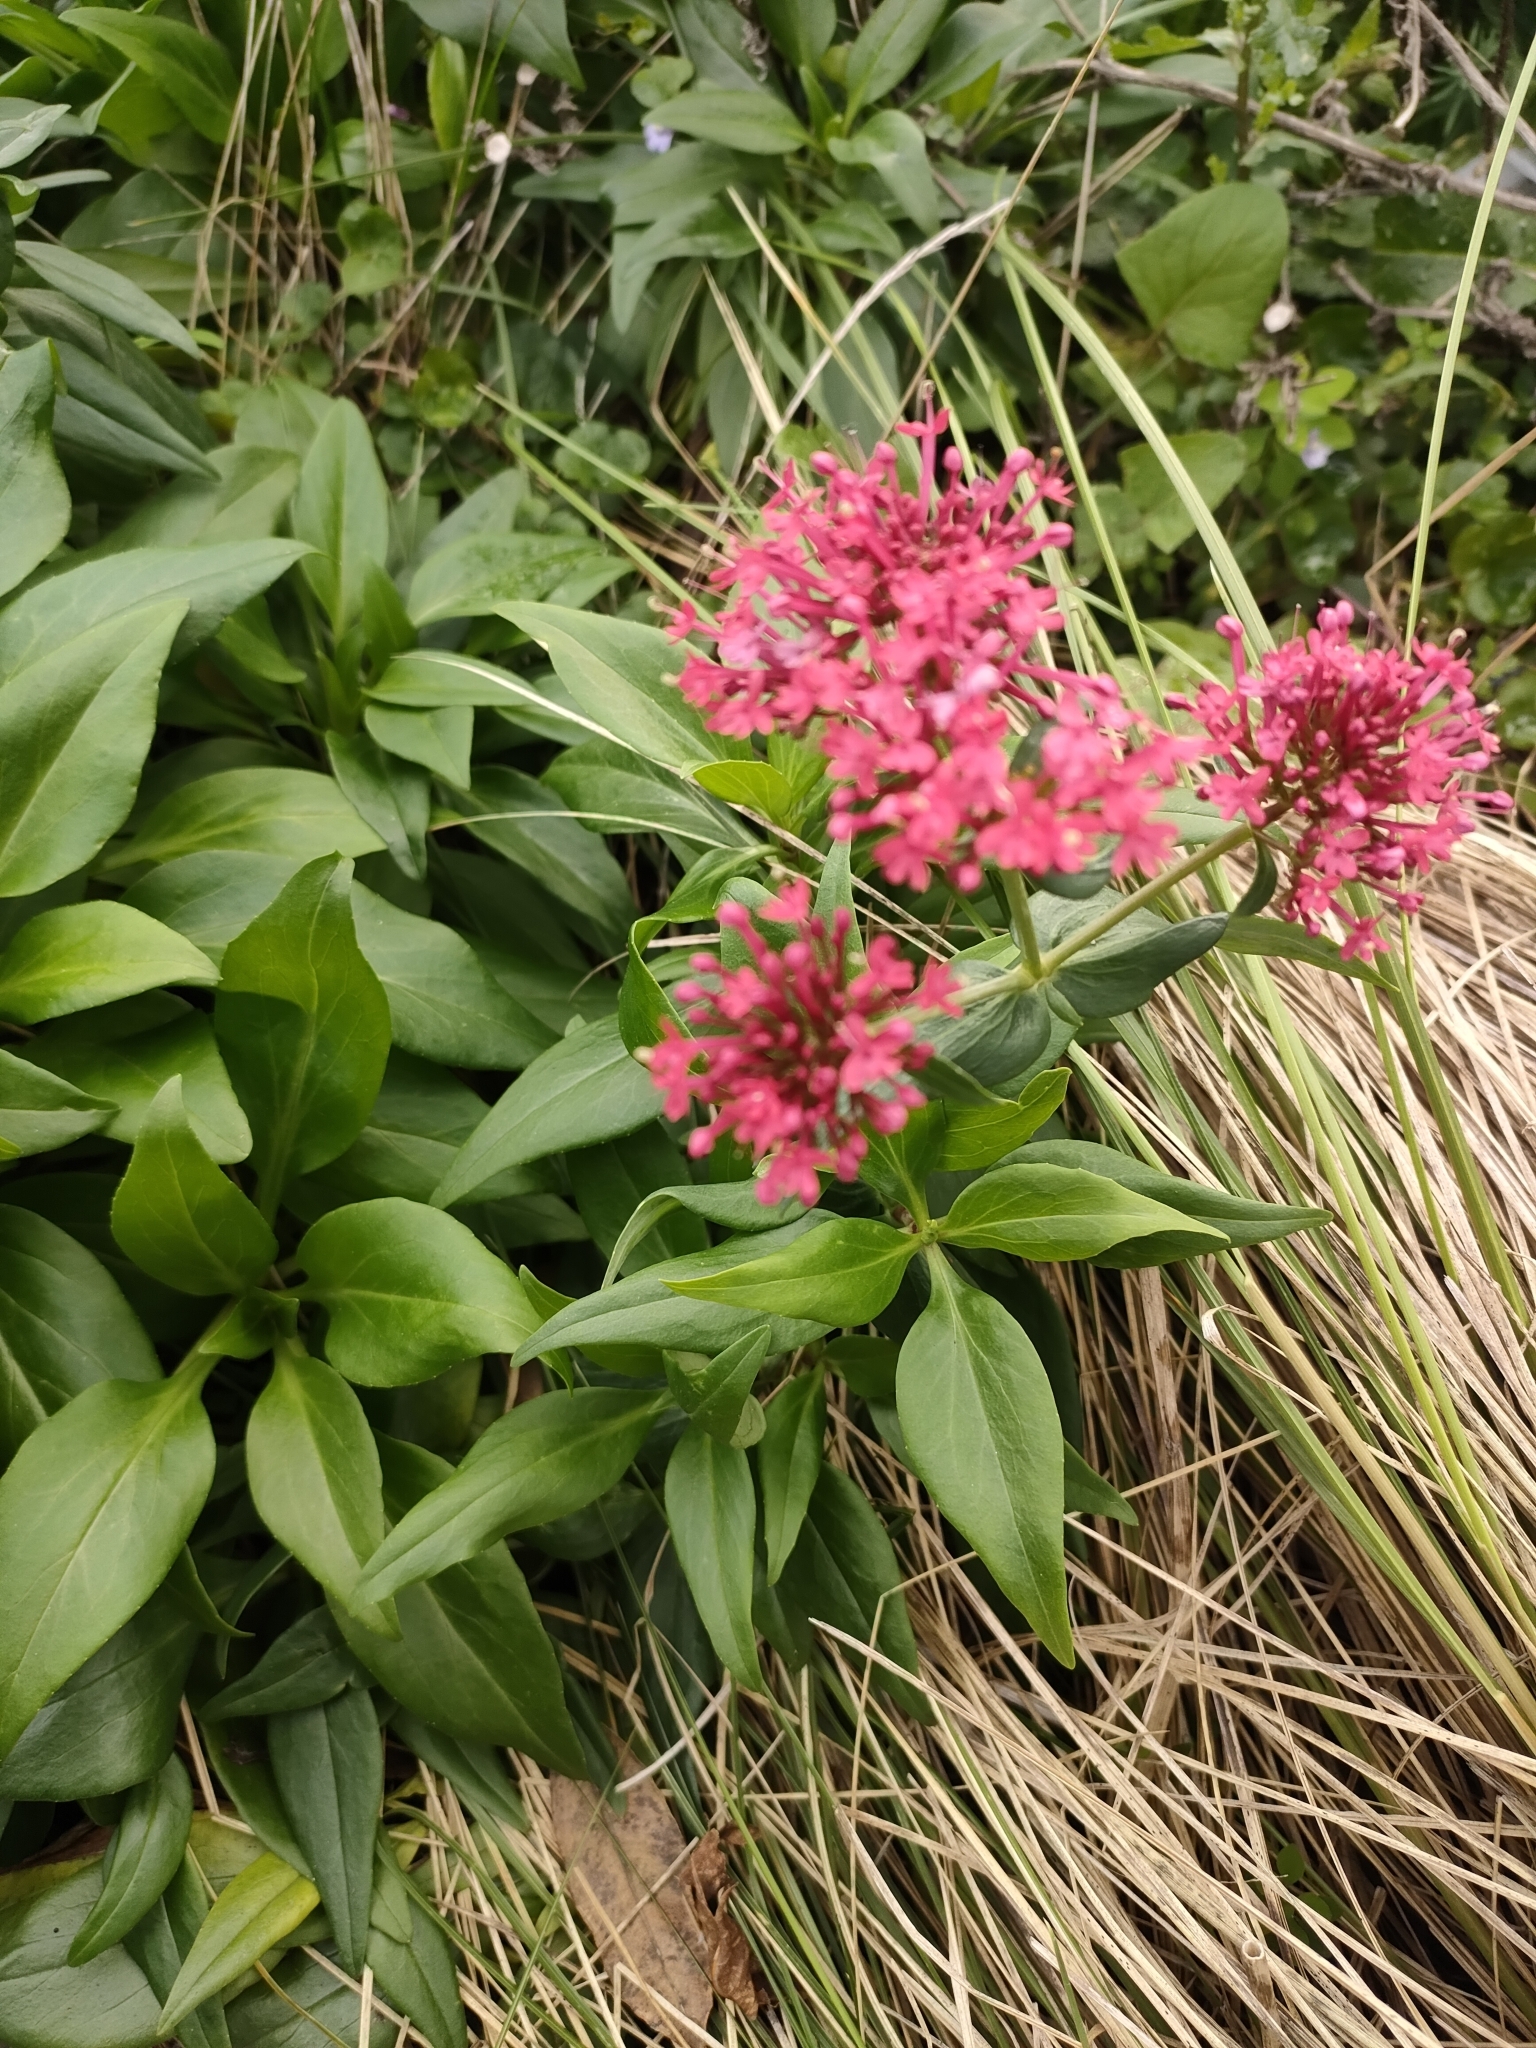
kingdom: Plantae
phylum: Tracheophyta
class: Magnoliopsida
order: Dipsacales
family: Caprifoliaceae
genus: Centranthus
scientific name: Centranthus ruber
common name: Red valerian
